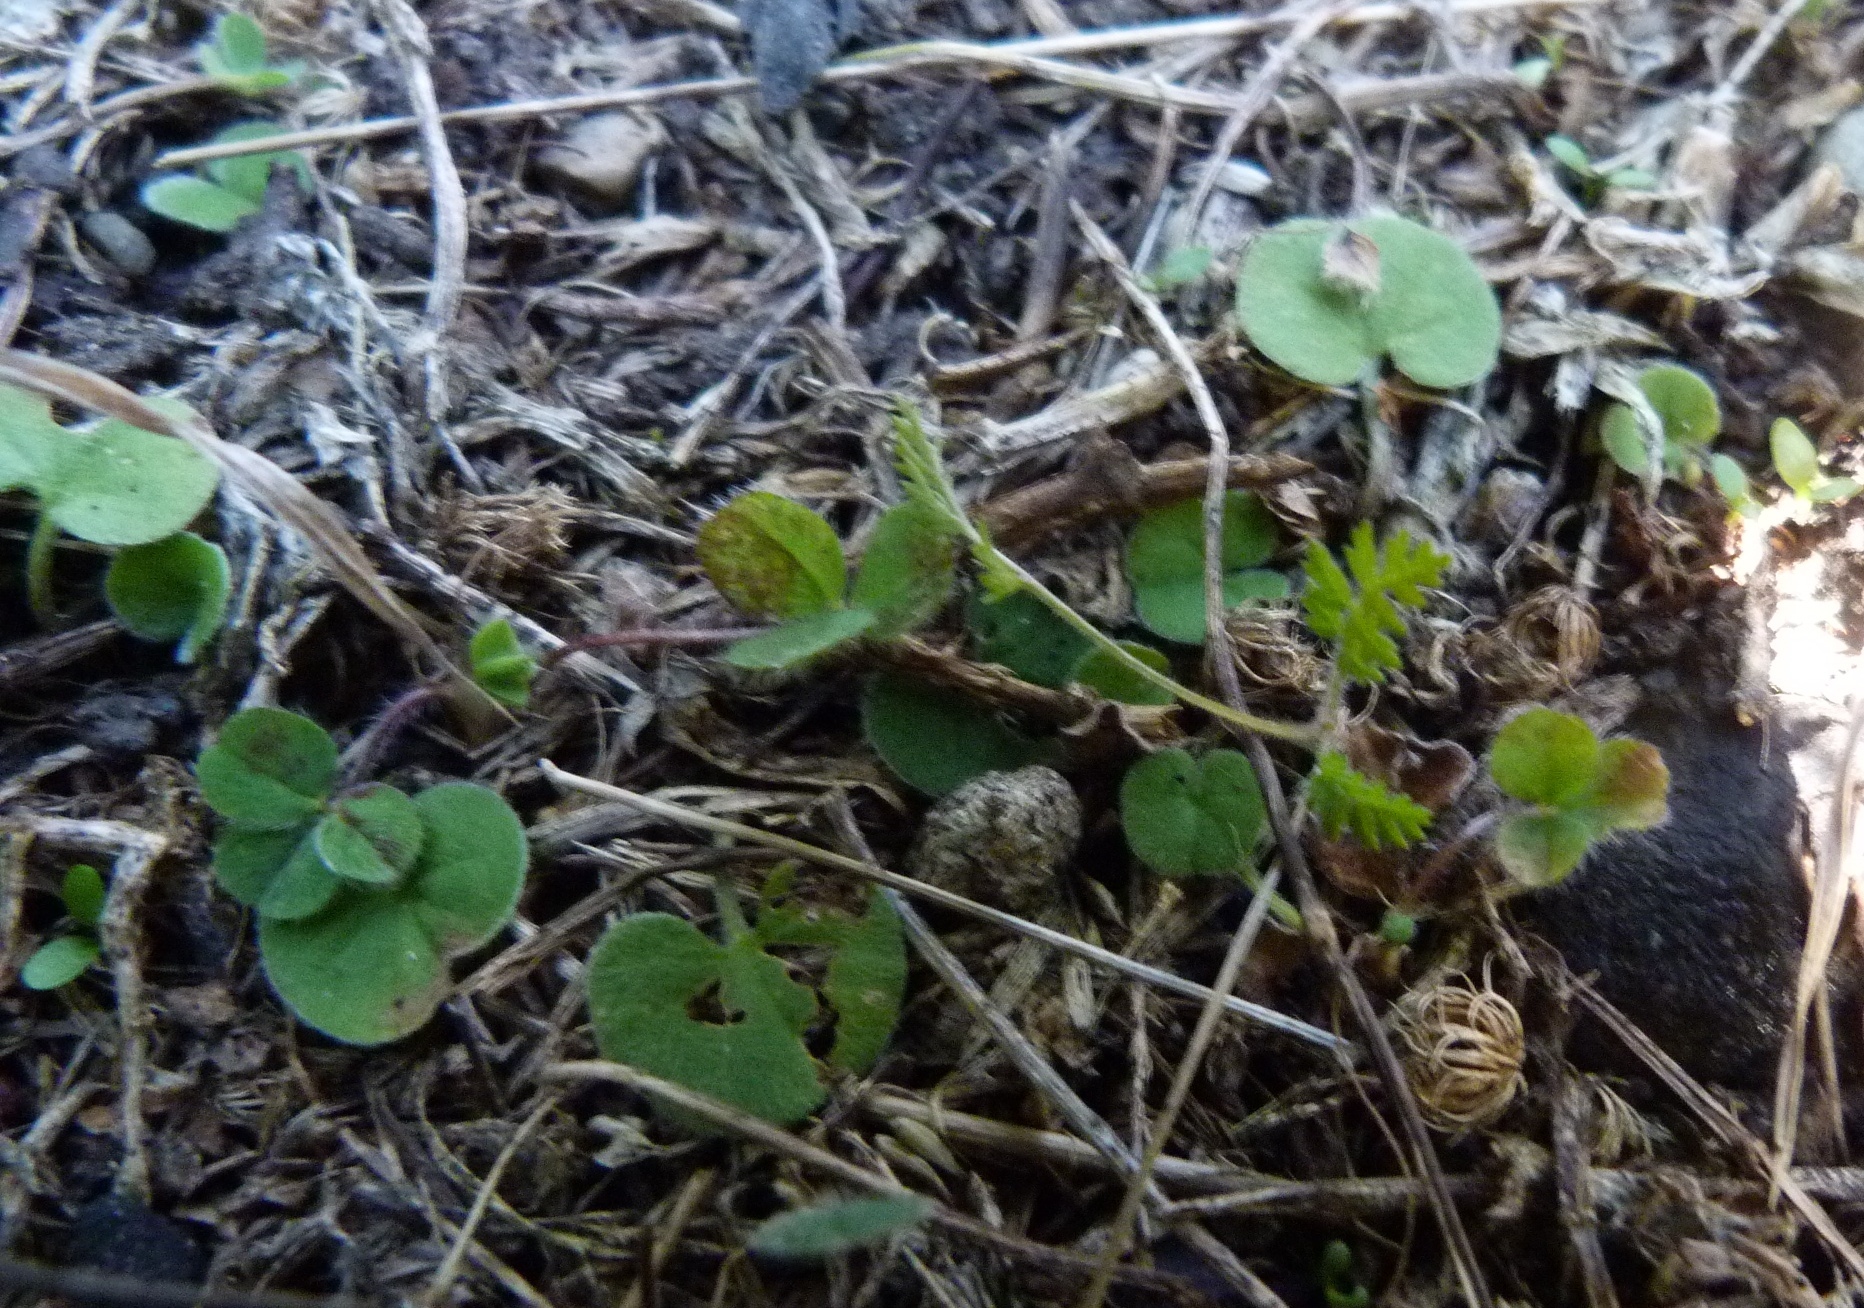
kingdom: Plantae
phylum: Tracheophyta
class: Magnoliopsida
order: Geraniales
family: Geraniaceae
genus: Erodium
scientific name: Erodium cicutarium
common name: Common stork's-bill
